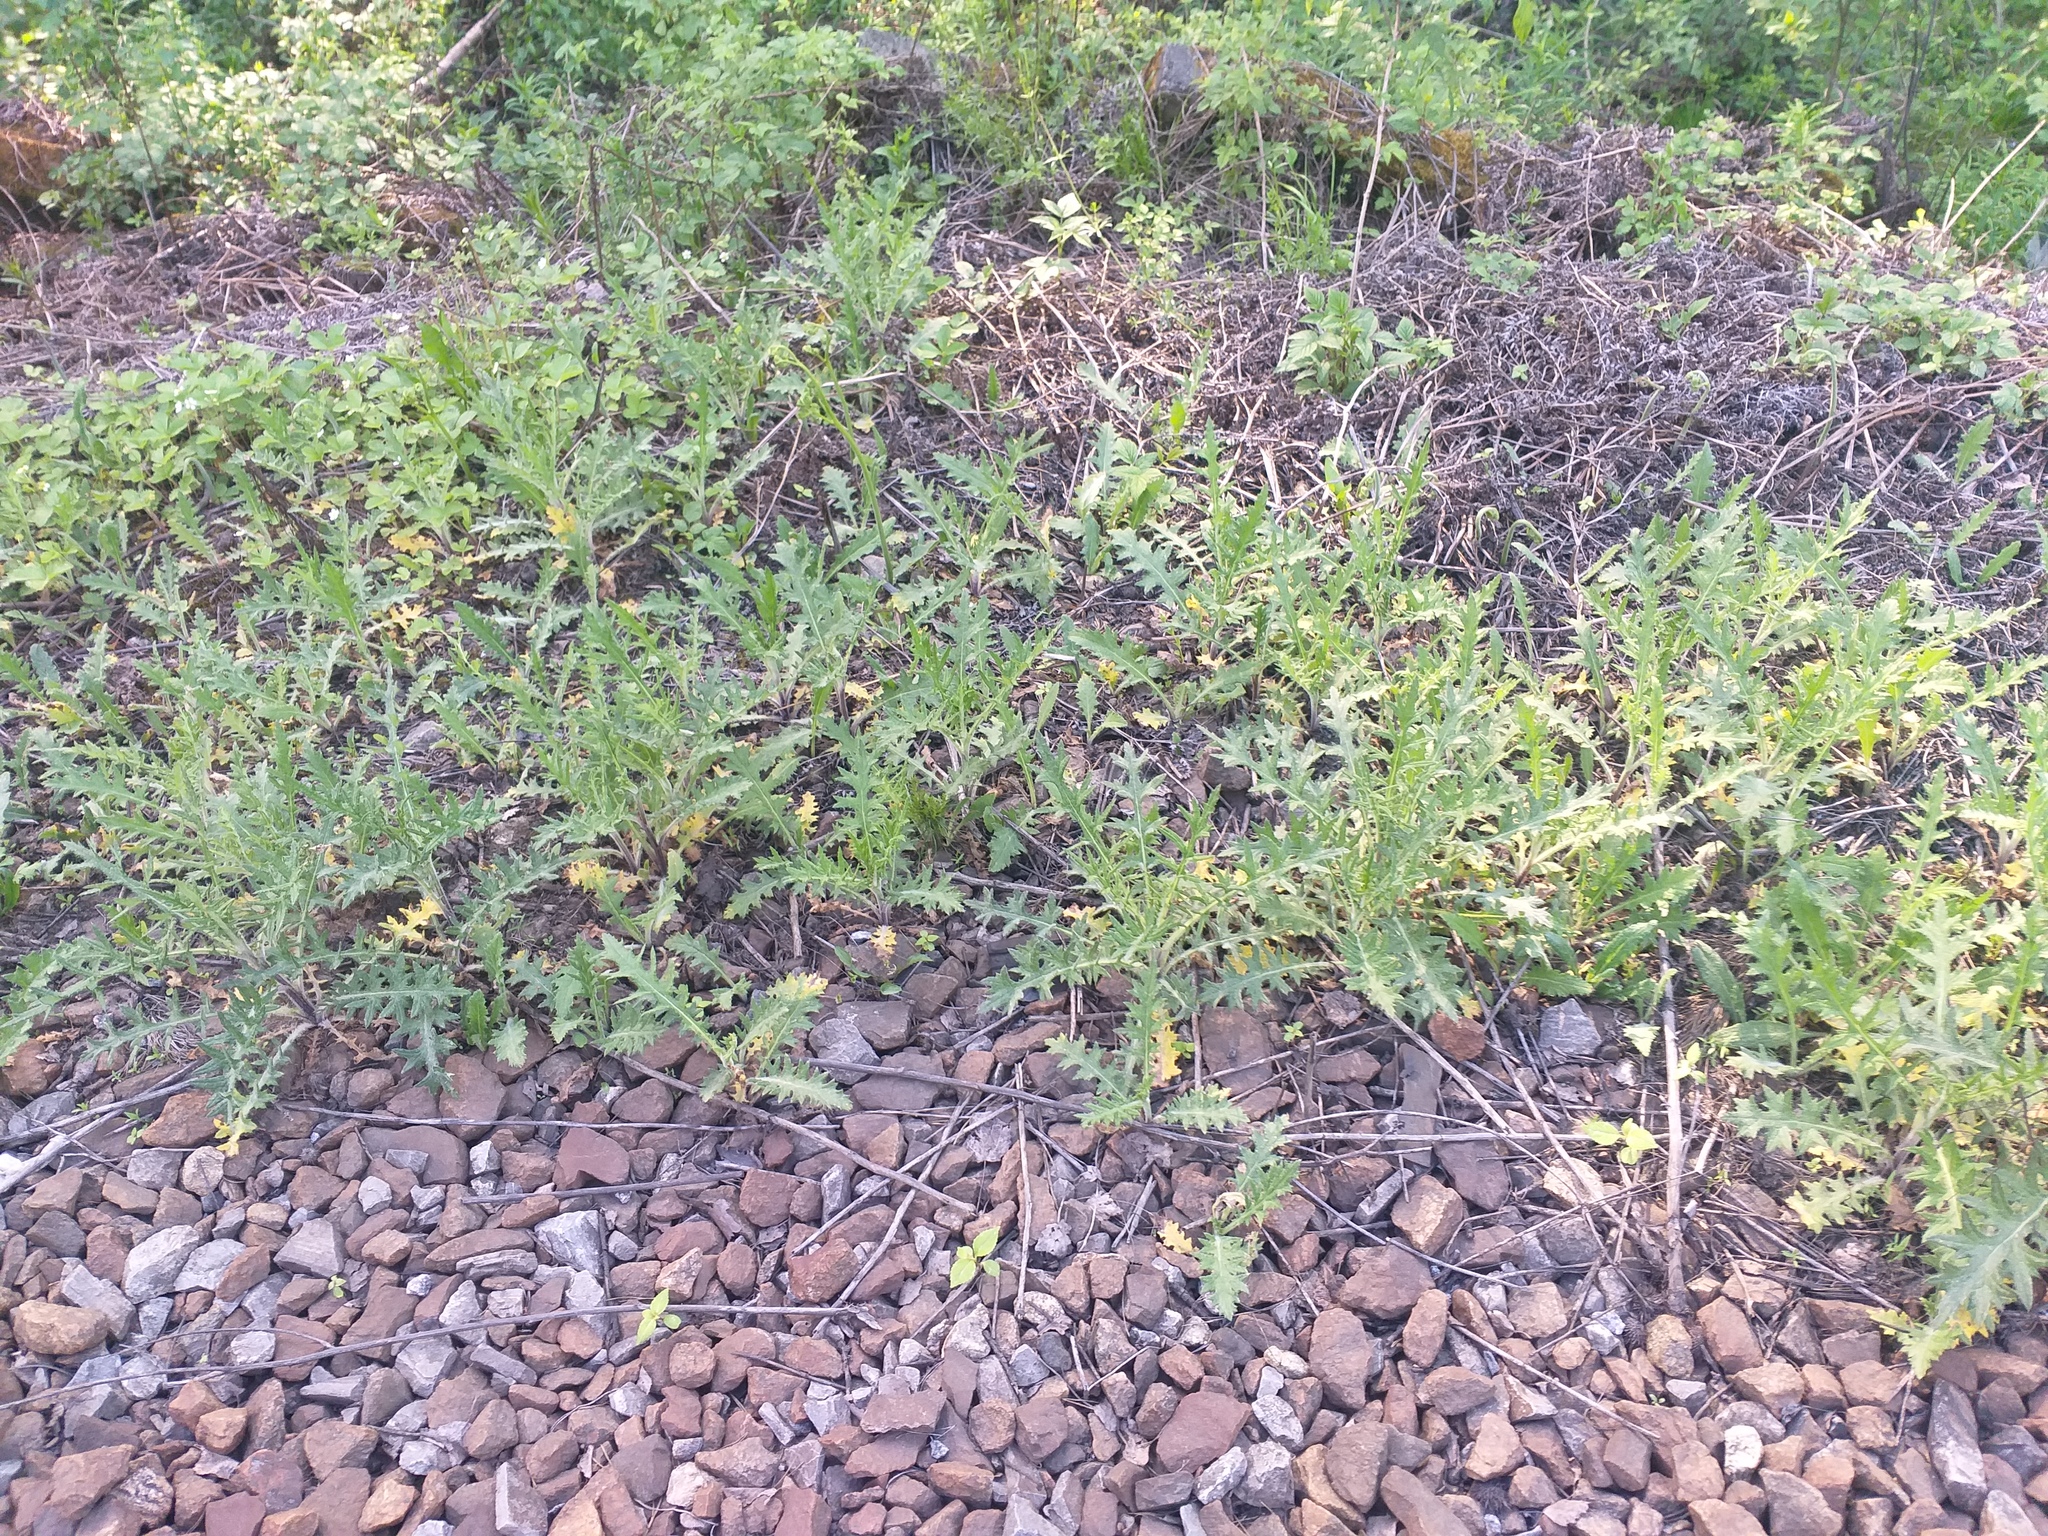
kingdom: Plantae
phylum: Tracheophyta
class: Magnoliopsida
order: Asterales
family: Asteraceae
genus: Cirsium
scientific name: Cirsium vulgare
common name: Bull thistle
